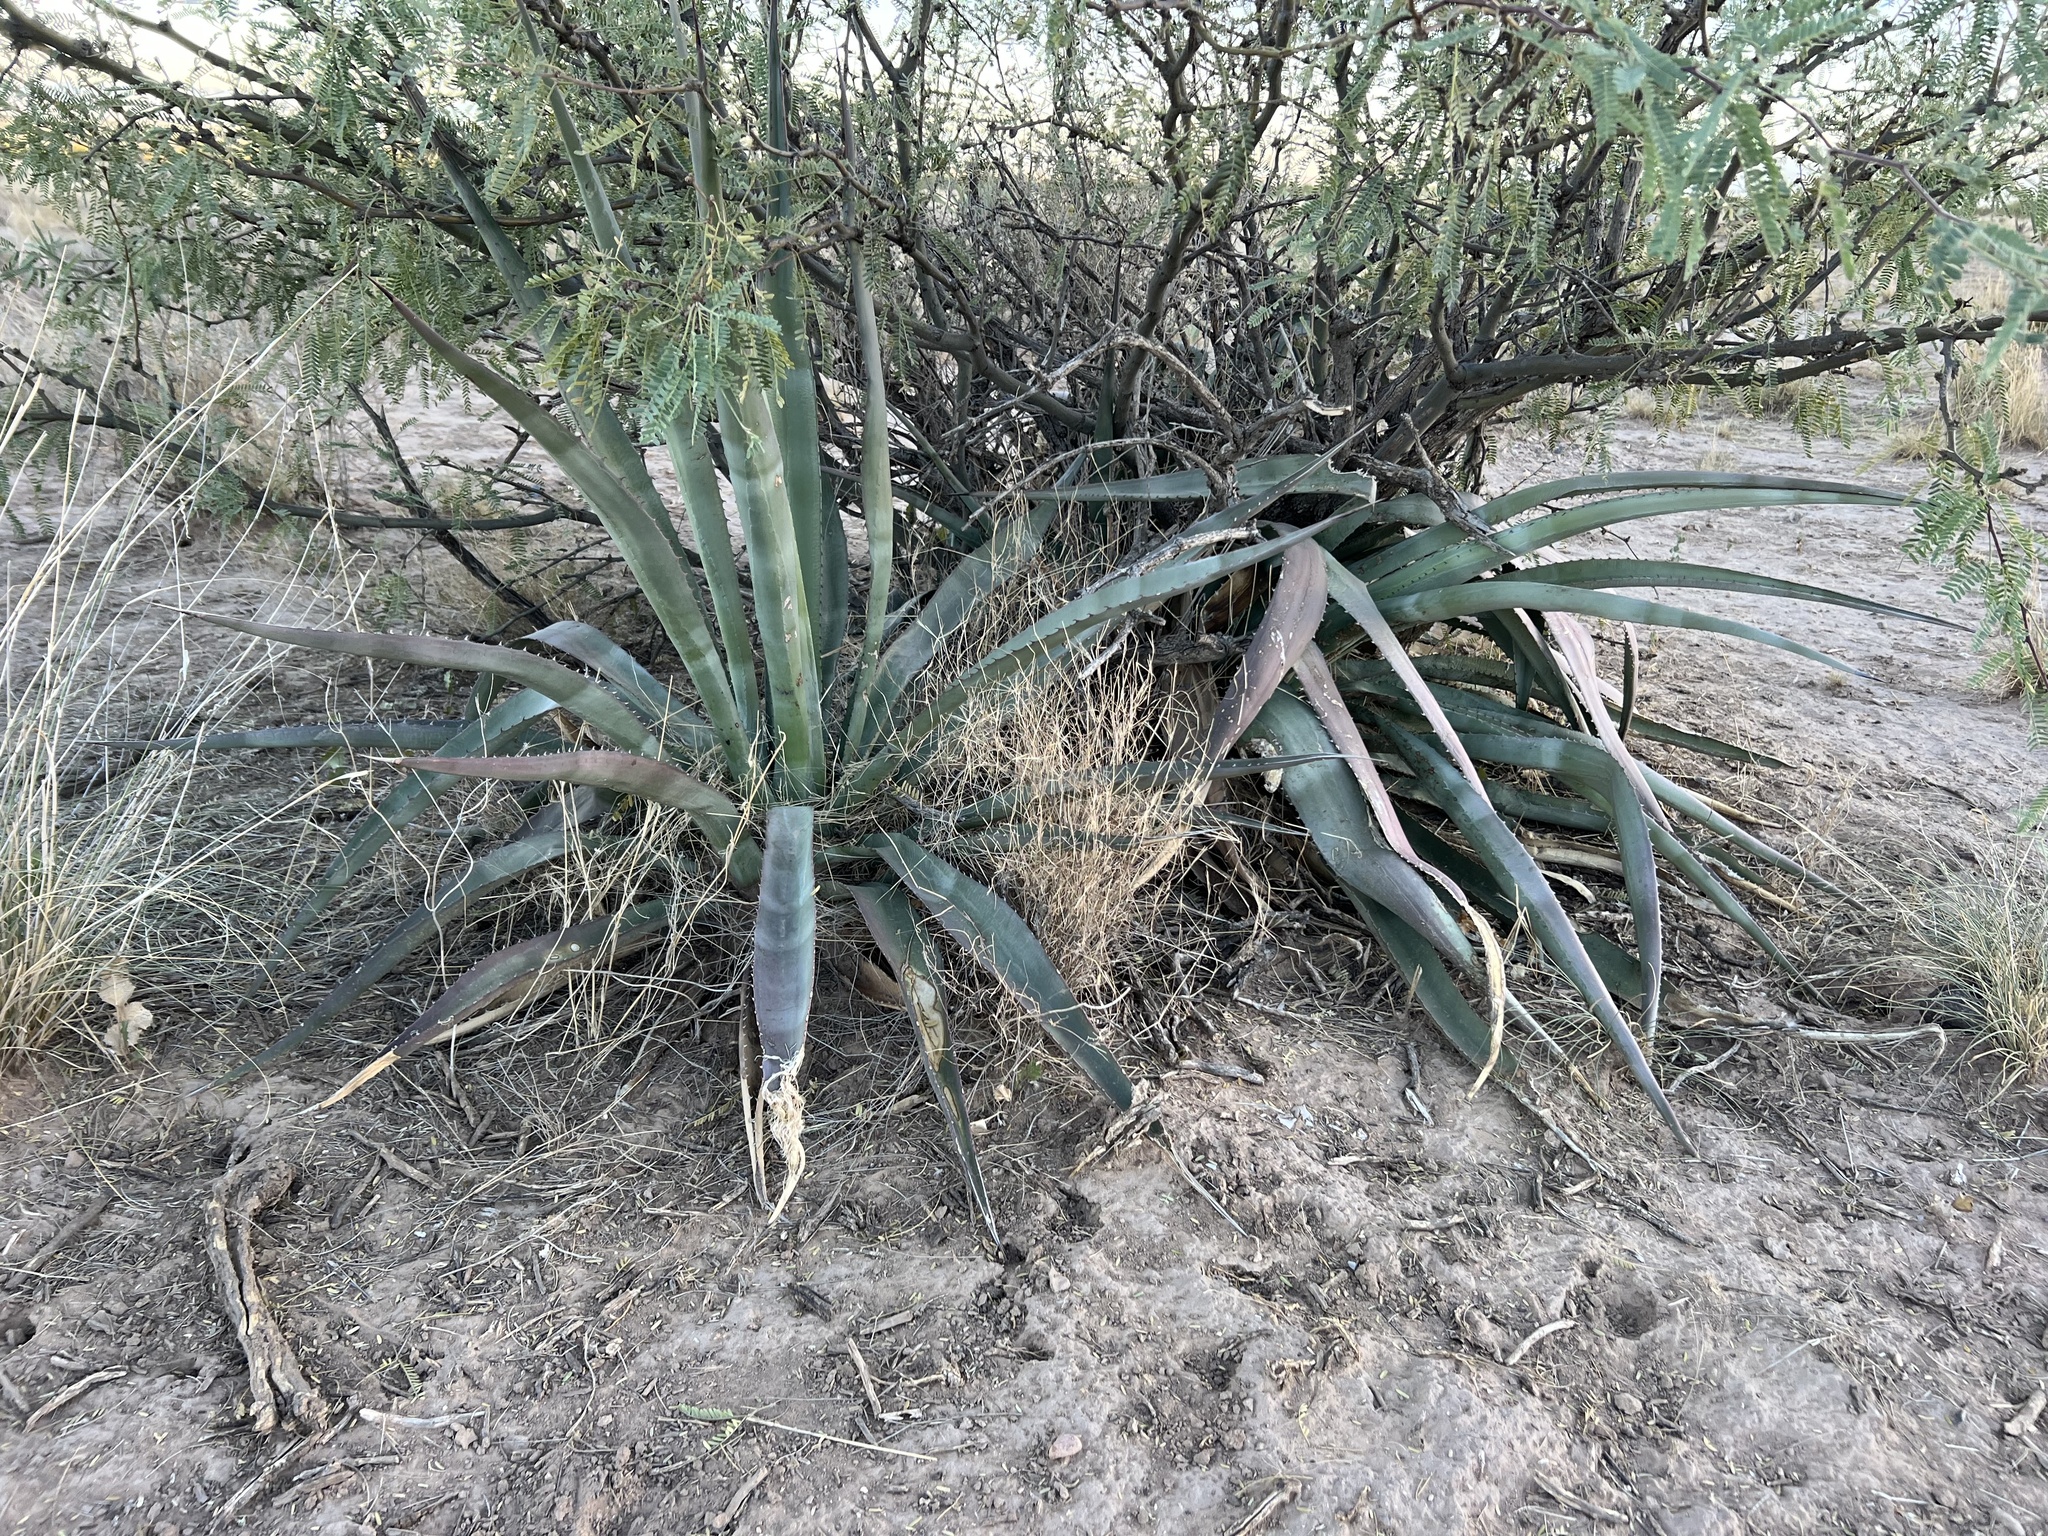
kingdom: Plantae
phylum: Tracheophyta
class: Liliopsida
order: Asparagales
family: Asparagaceae
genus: Agave
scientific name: Agave palmeri
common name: Palmer agave
